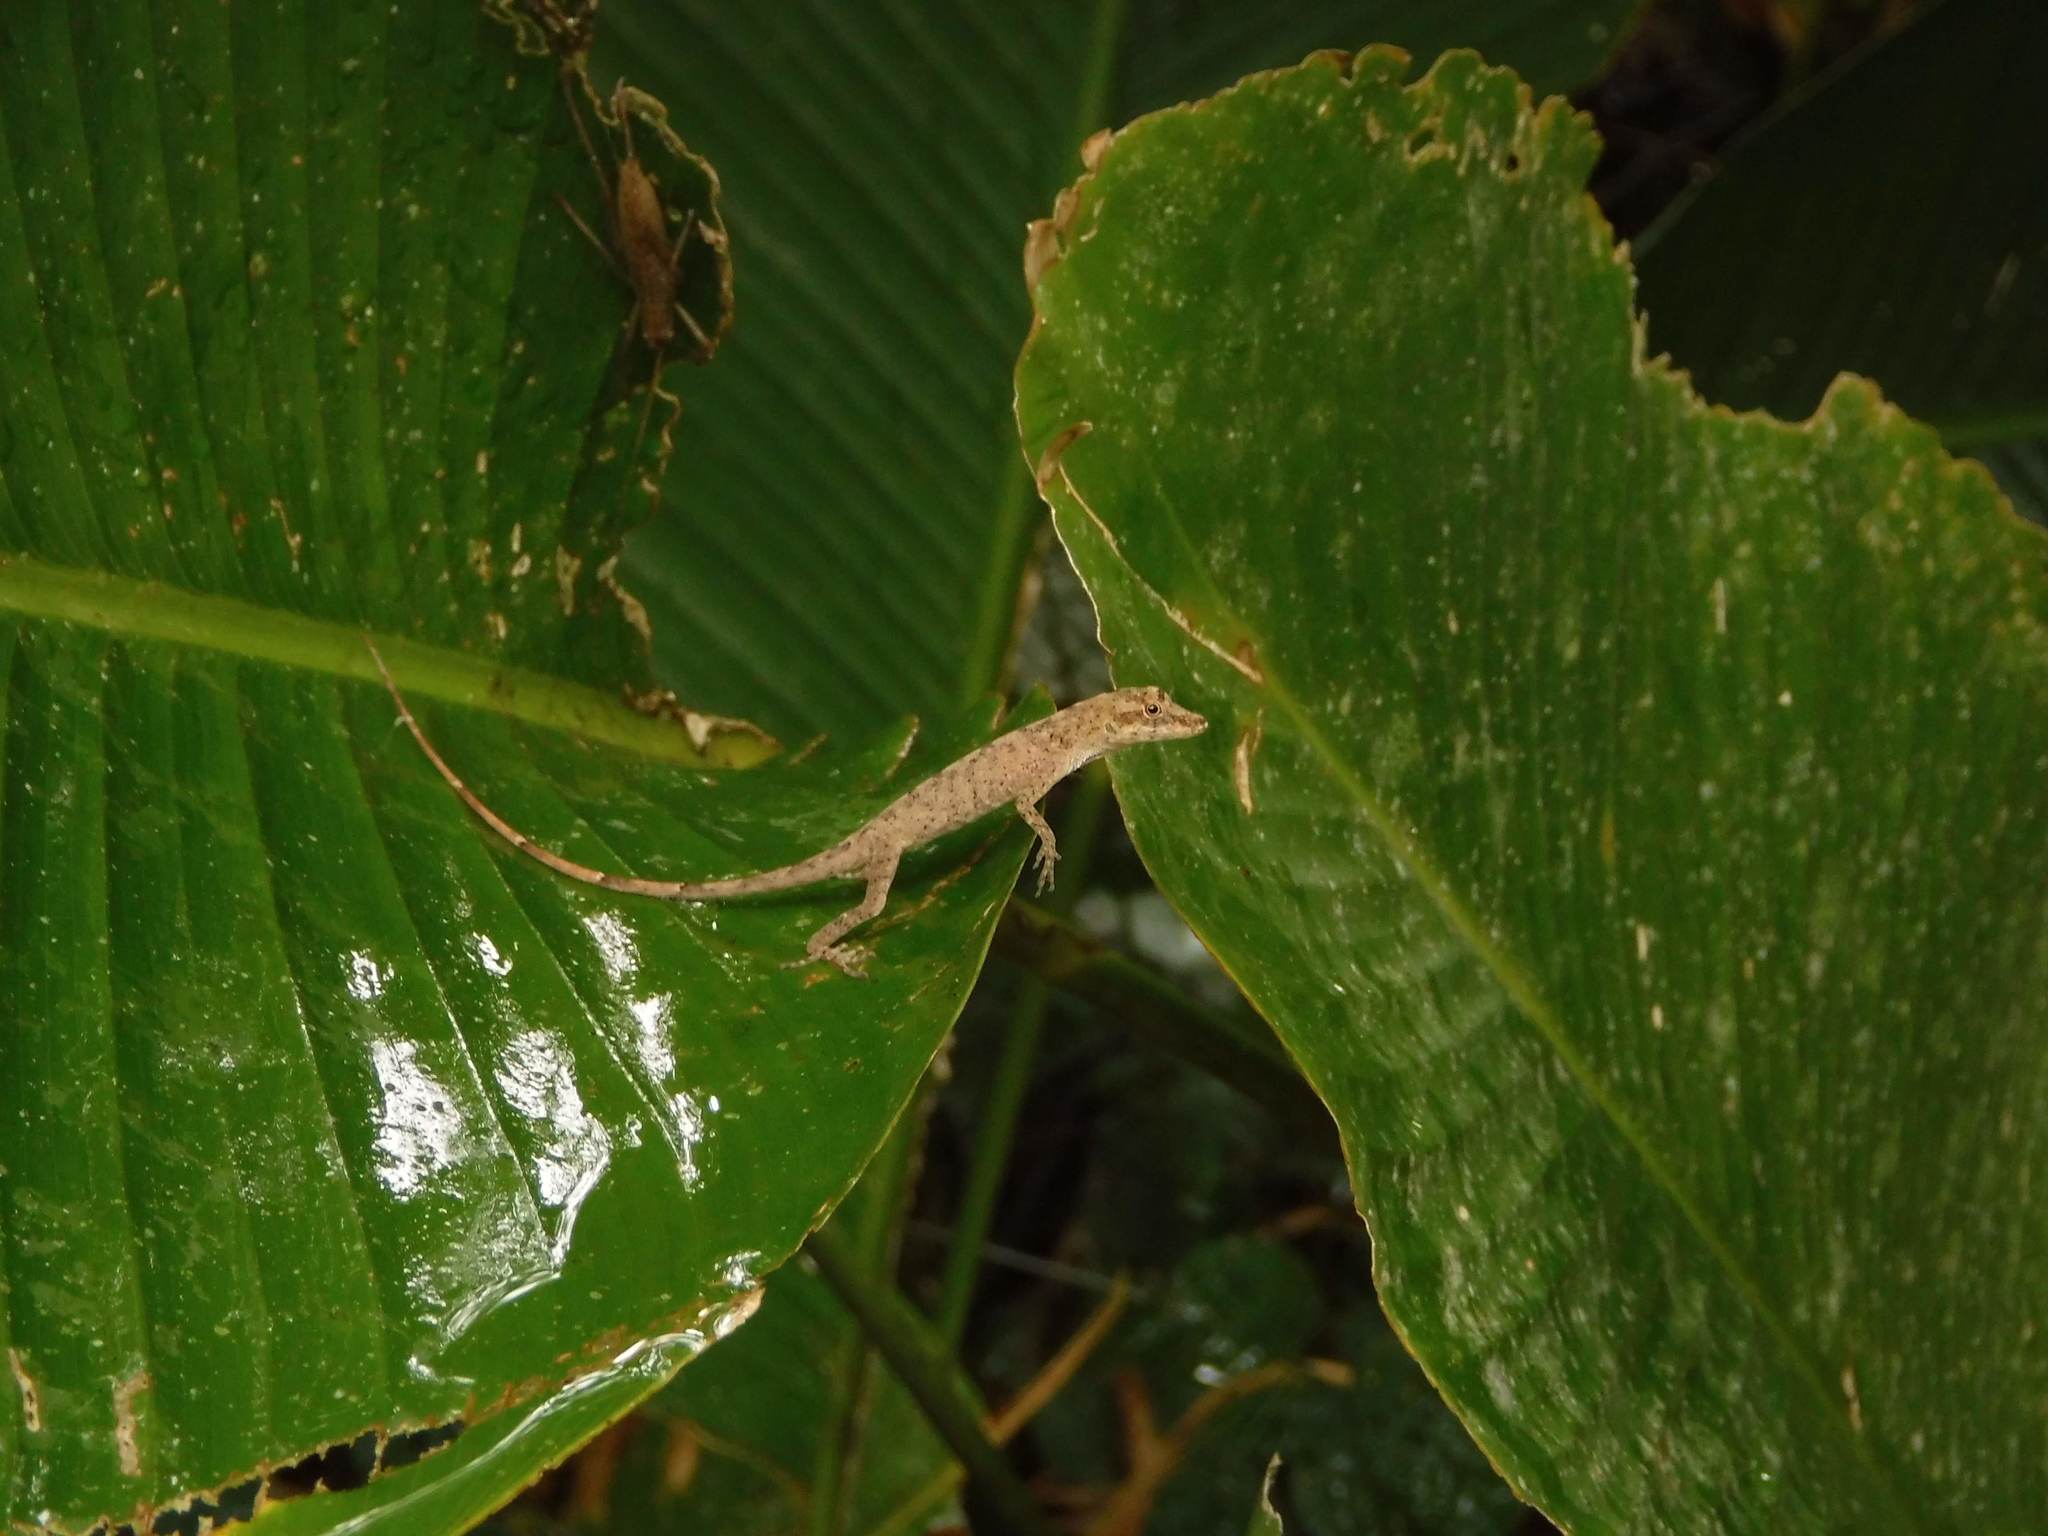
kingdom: Animalia
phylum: Chordata
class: Squamata
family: Dactyloidae
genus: Anolis
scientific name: Anolis fuscoauratus
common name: Brown-eared anole
